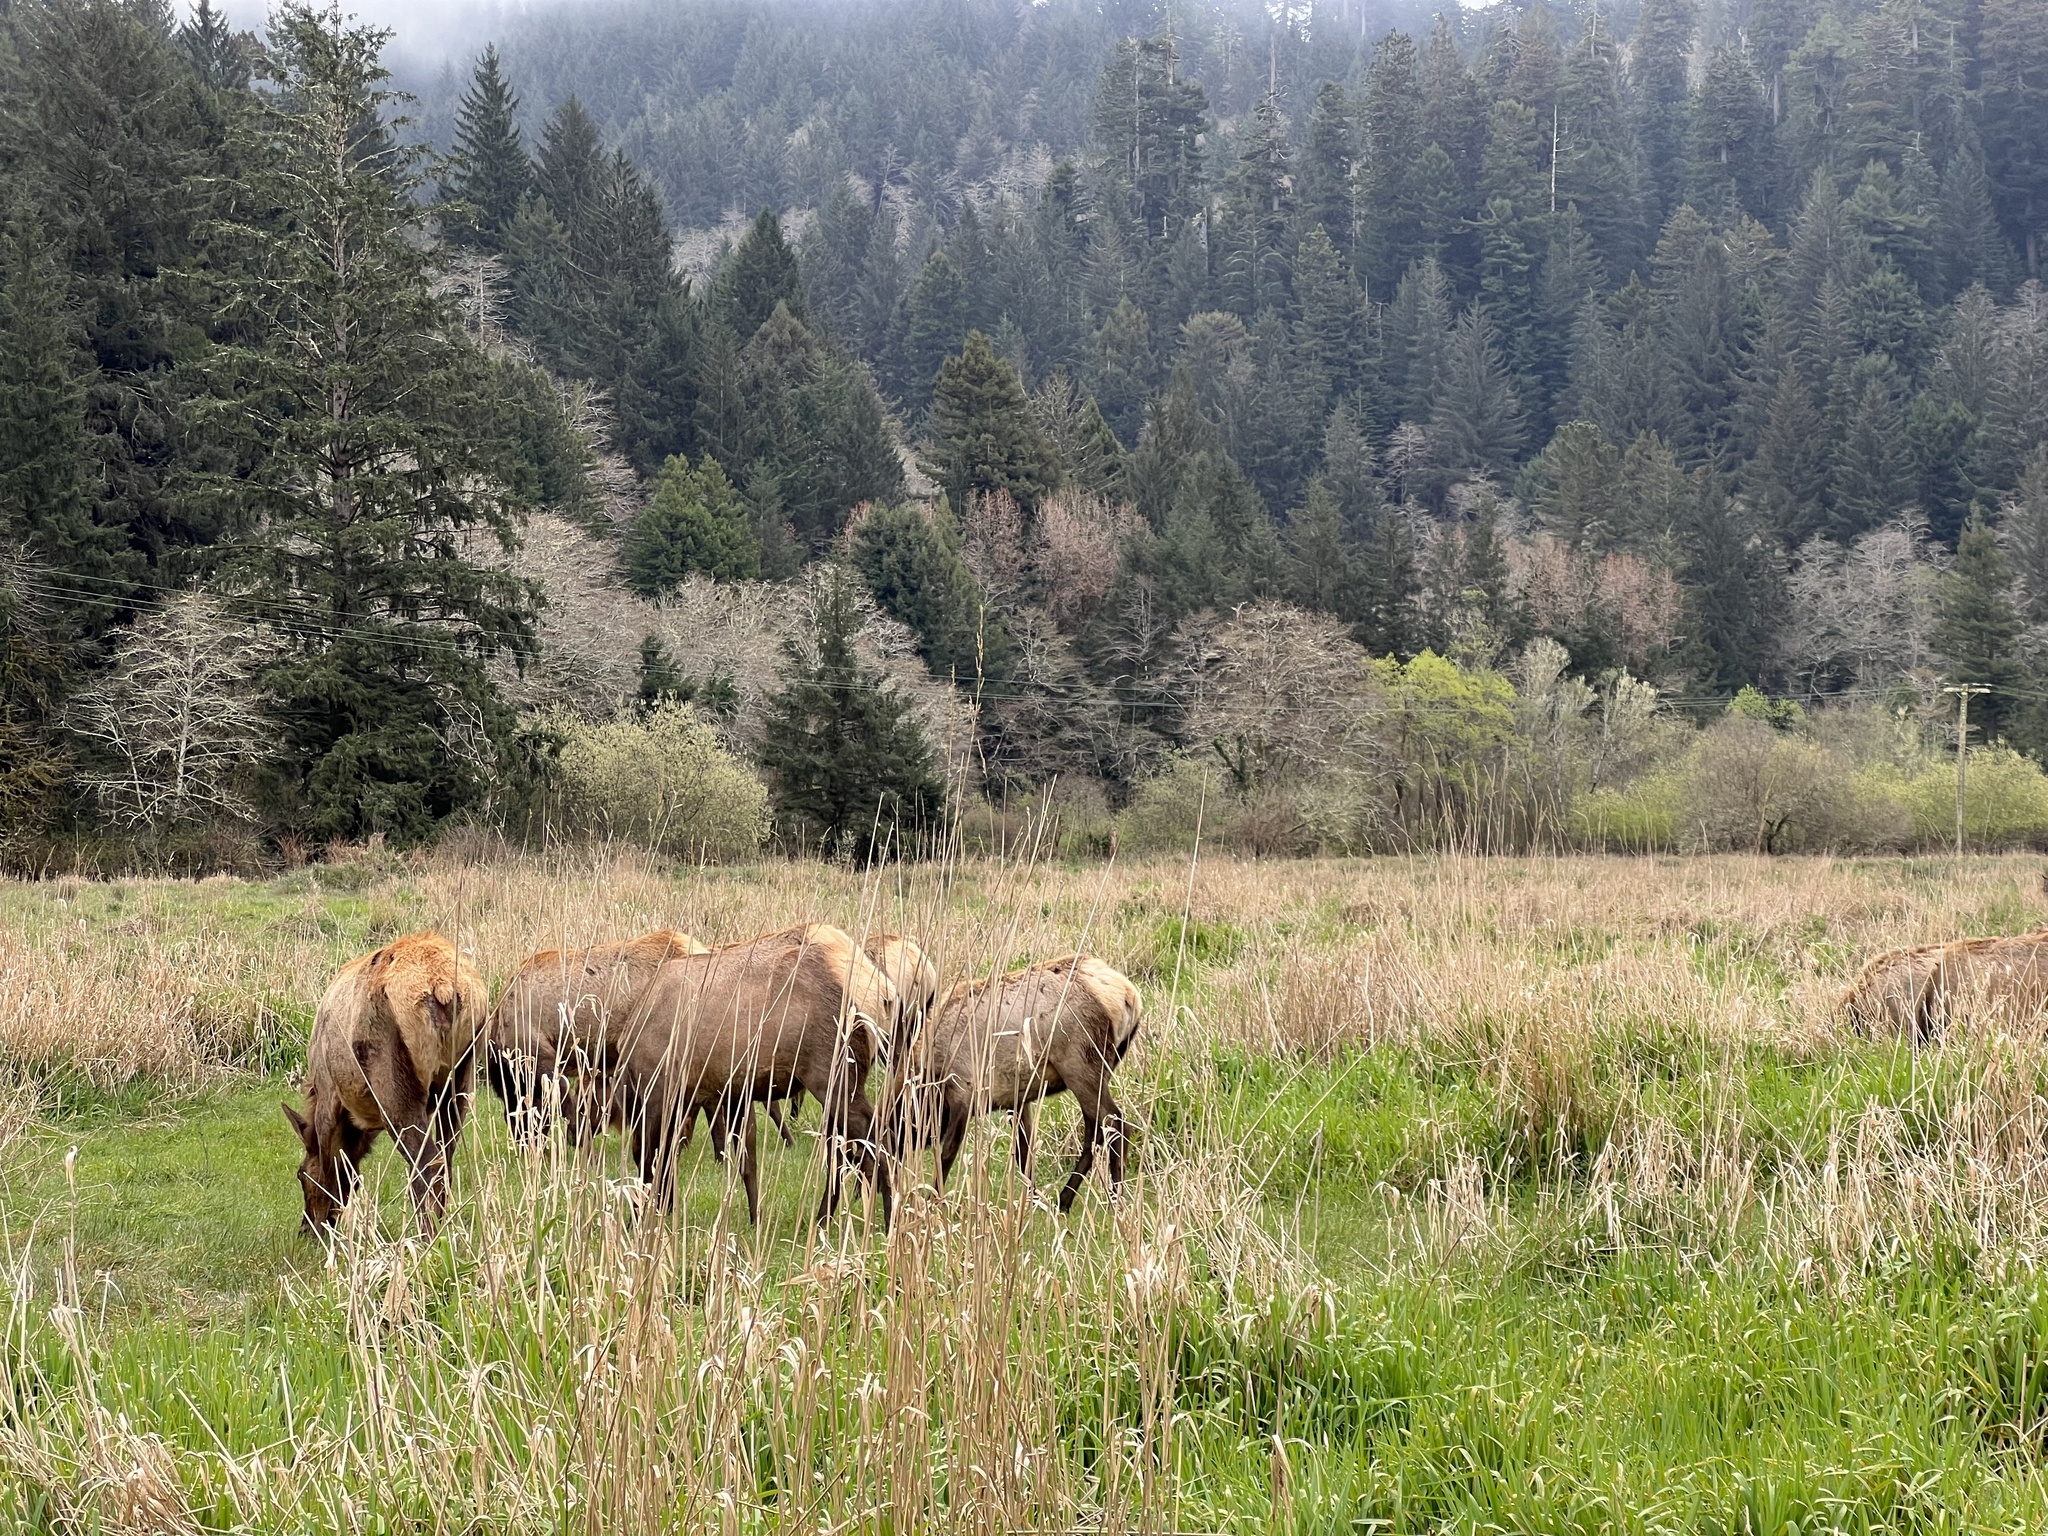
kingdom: Animalia
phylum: Chordata
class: Mammalia
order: Artiodactyla
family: Cervidae
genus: Cervus
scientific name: Cervus elaphus
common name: Red deer
